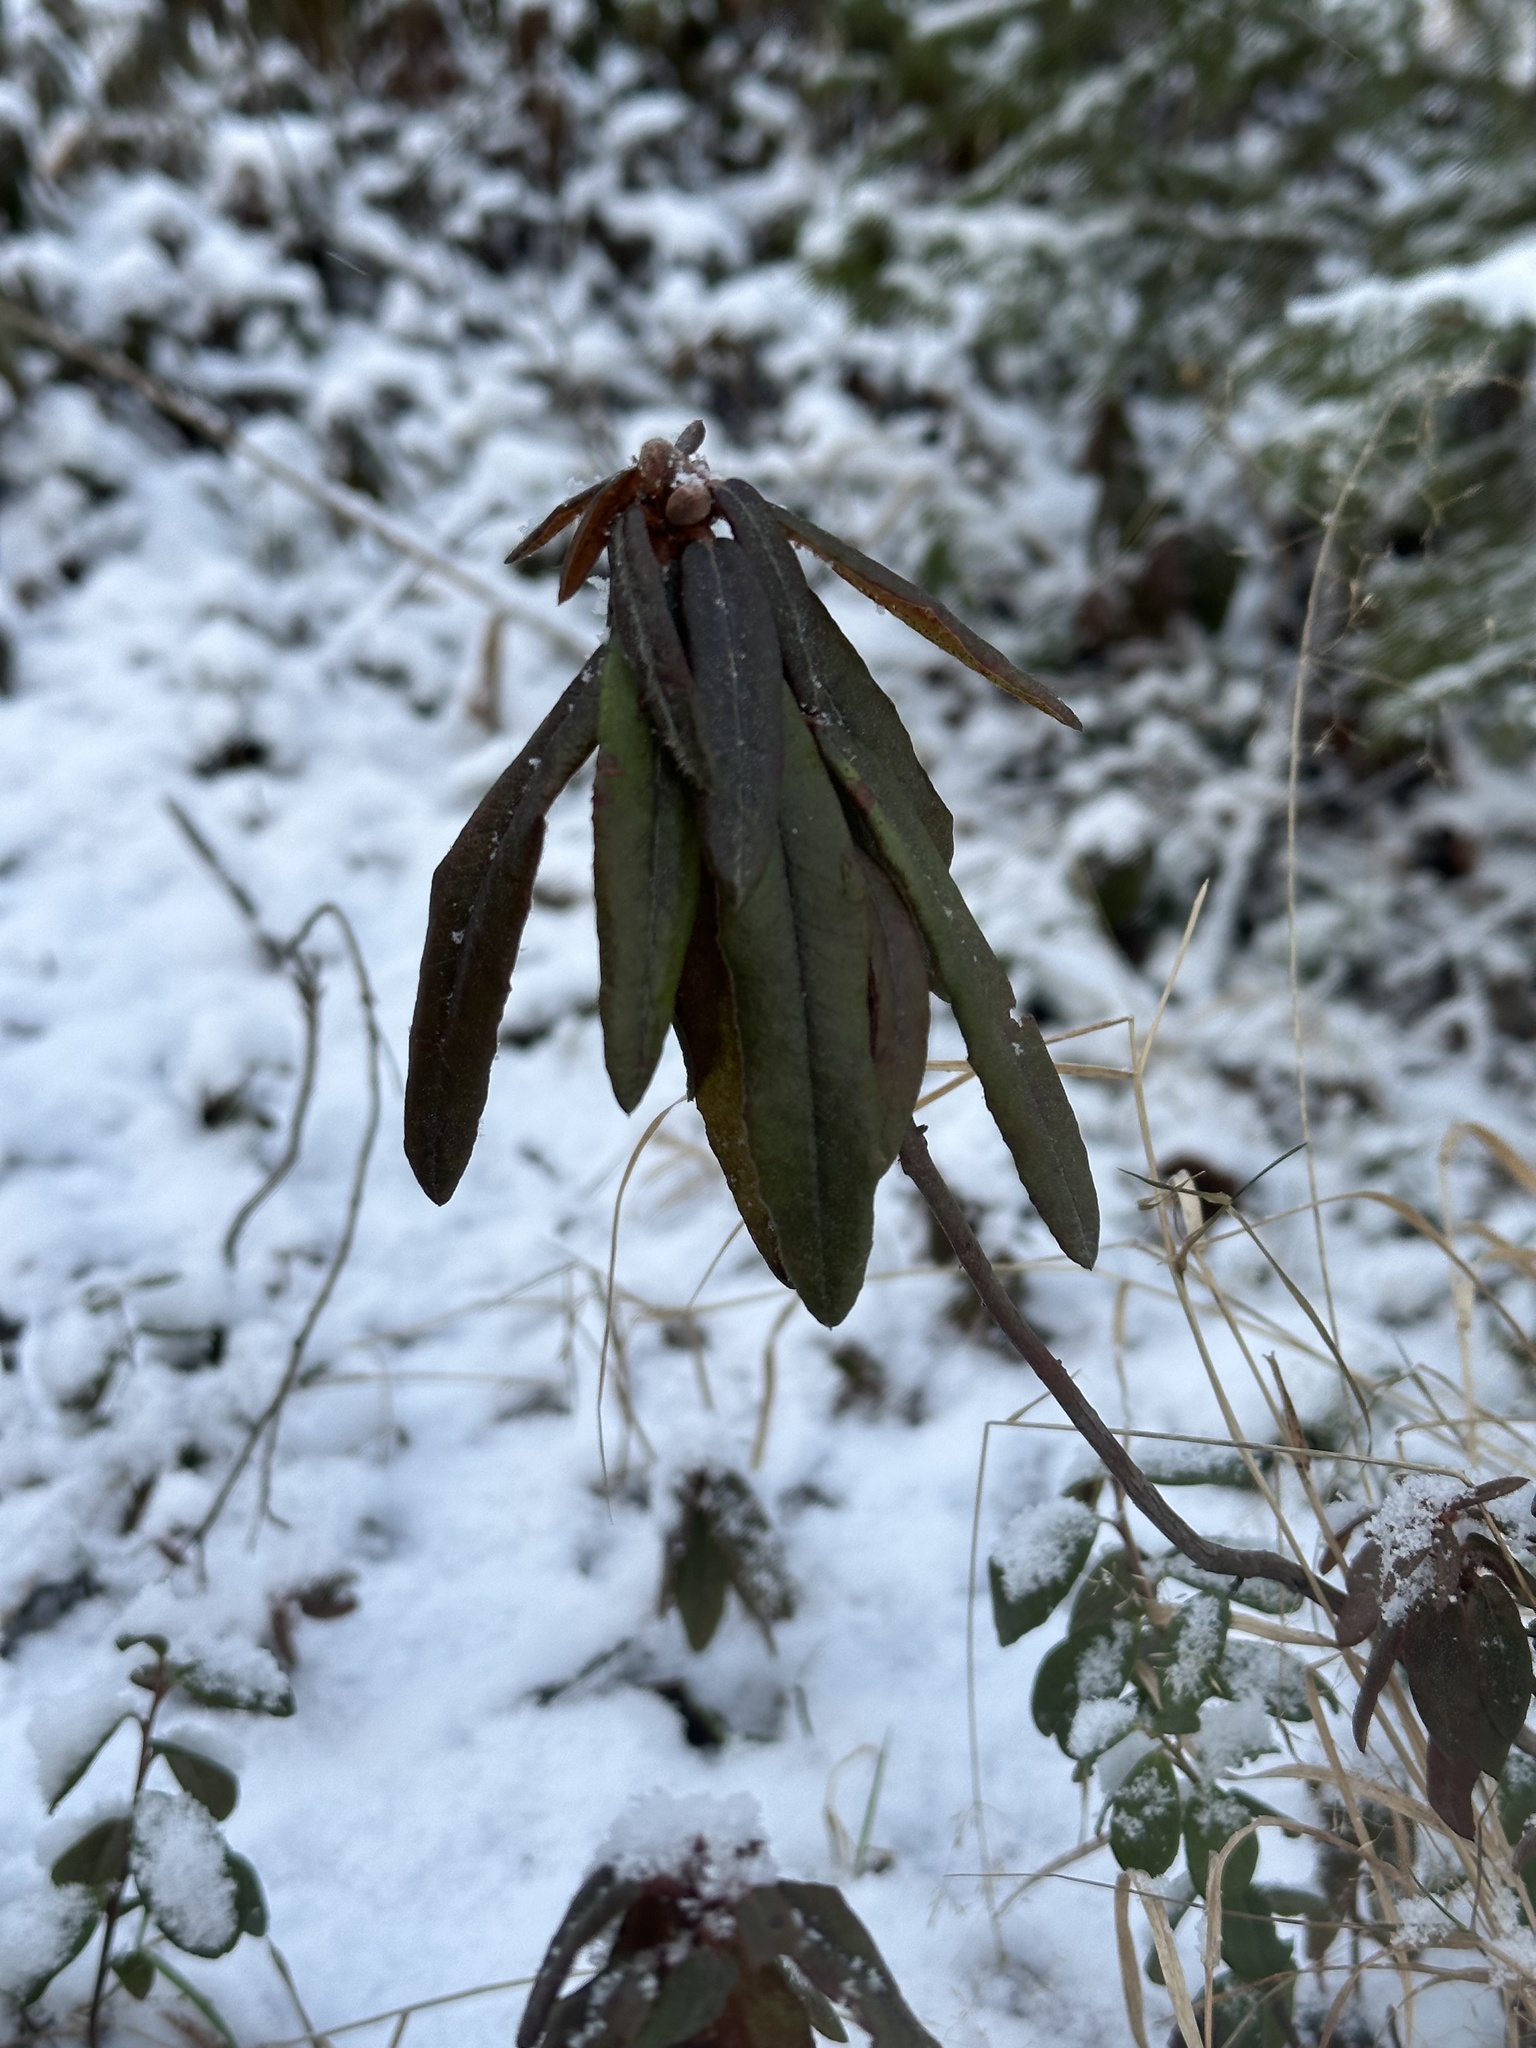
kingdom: Plantae
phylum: Tracheophyta
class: Magnoliopsida
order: Ericales
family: Ericaceae
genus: Rhododendron
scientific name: Rhododendron tomentosum
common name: Marsh labrador tea
